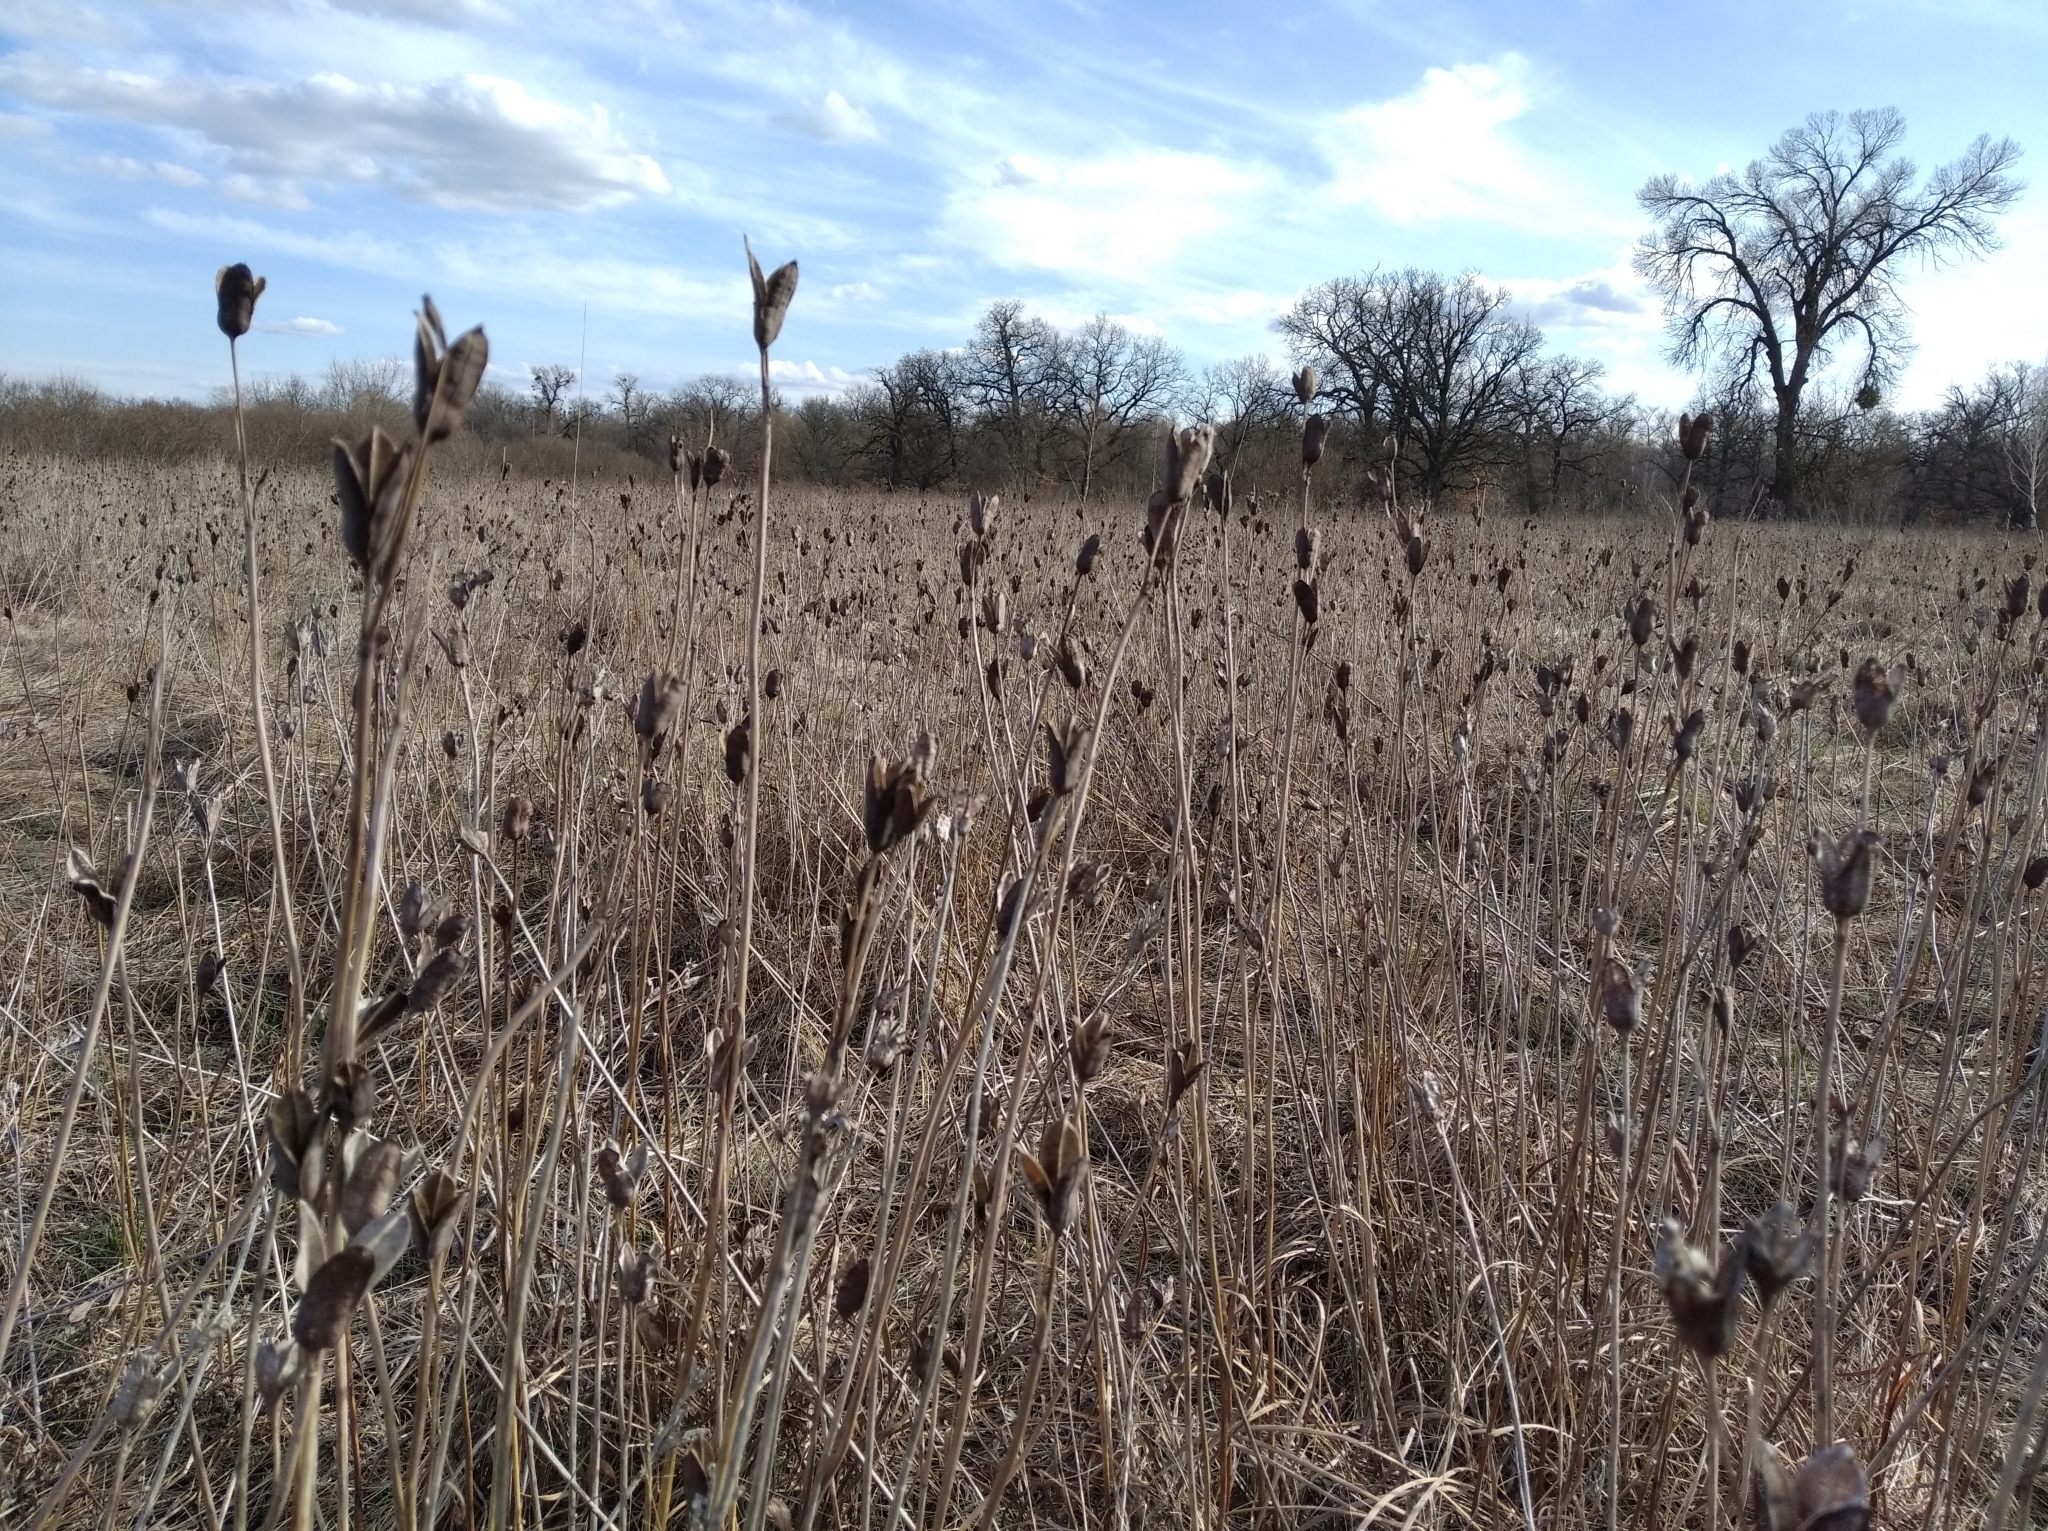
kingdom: Plantae
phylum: Tracheophyta
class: Liliopsida
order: Asparagales
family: Iridaceae
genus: Iris
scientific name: Iris sibirica
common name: Siberian iris
